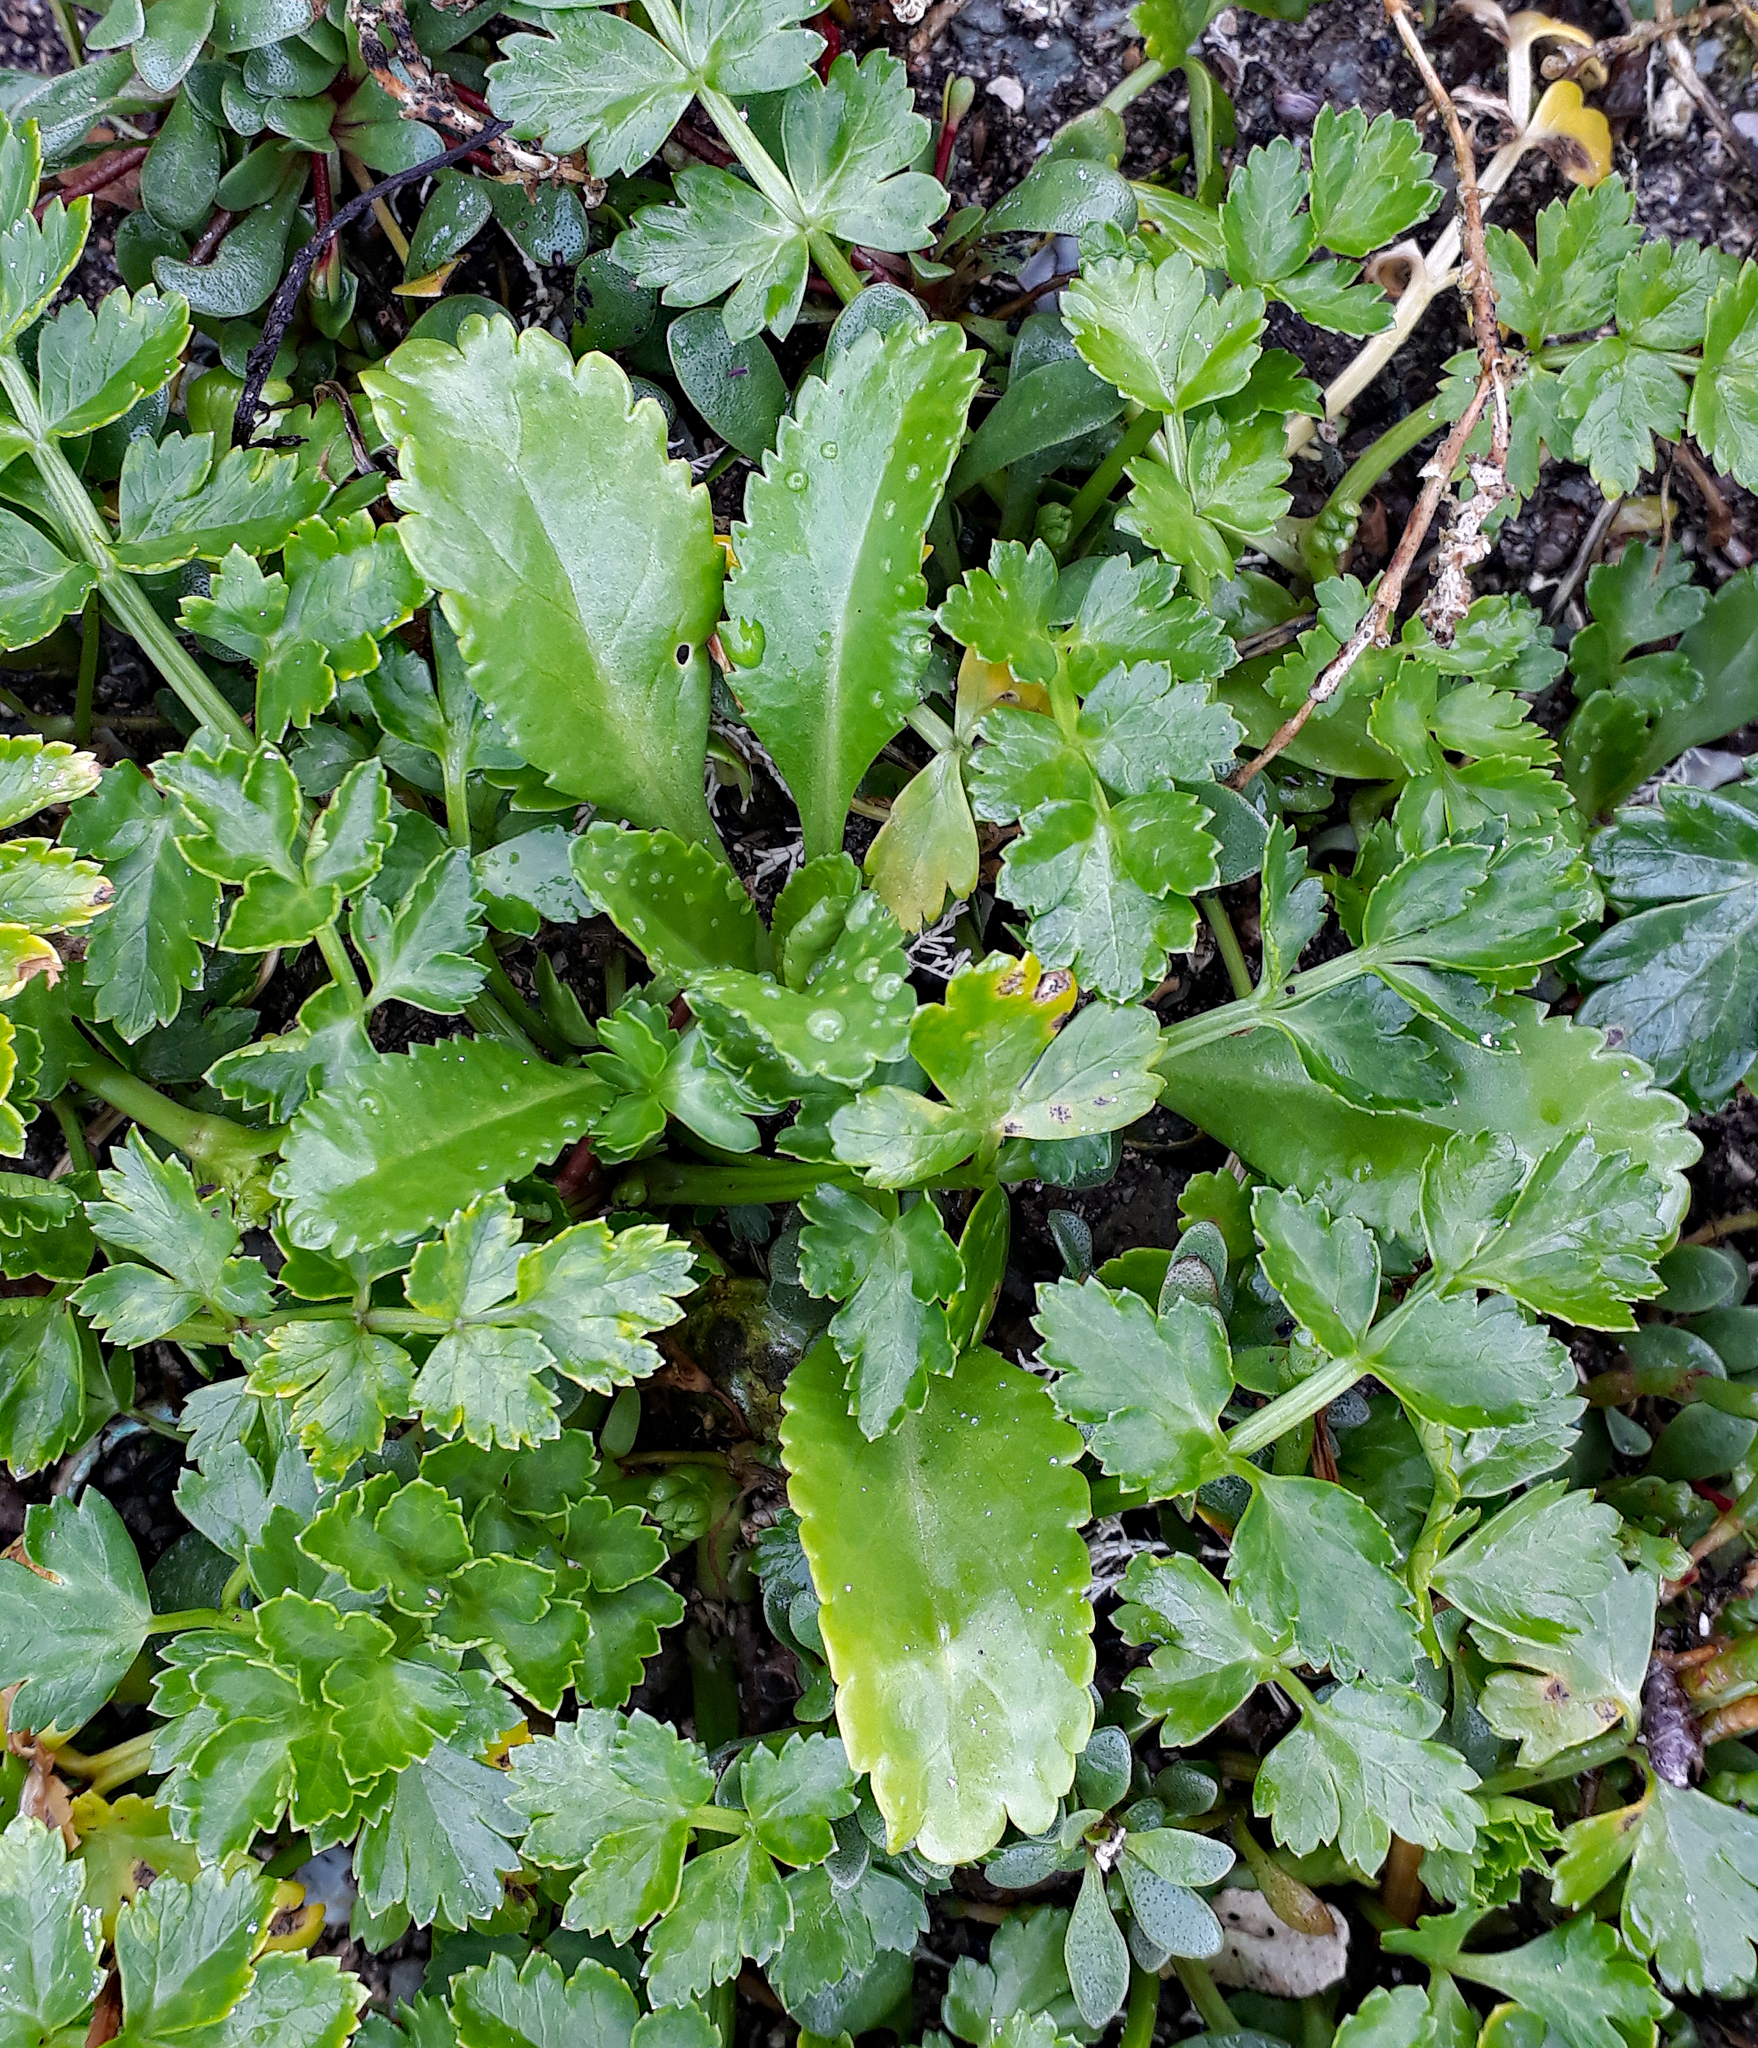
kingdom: Plantae
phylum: Tracheophyta
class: Magnoliopsida
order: Brassicales
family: Brassicaceae
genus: Lepidium
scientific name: Lepidium rekohuense
